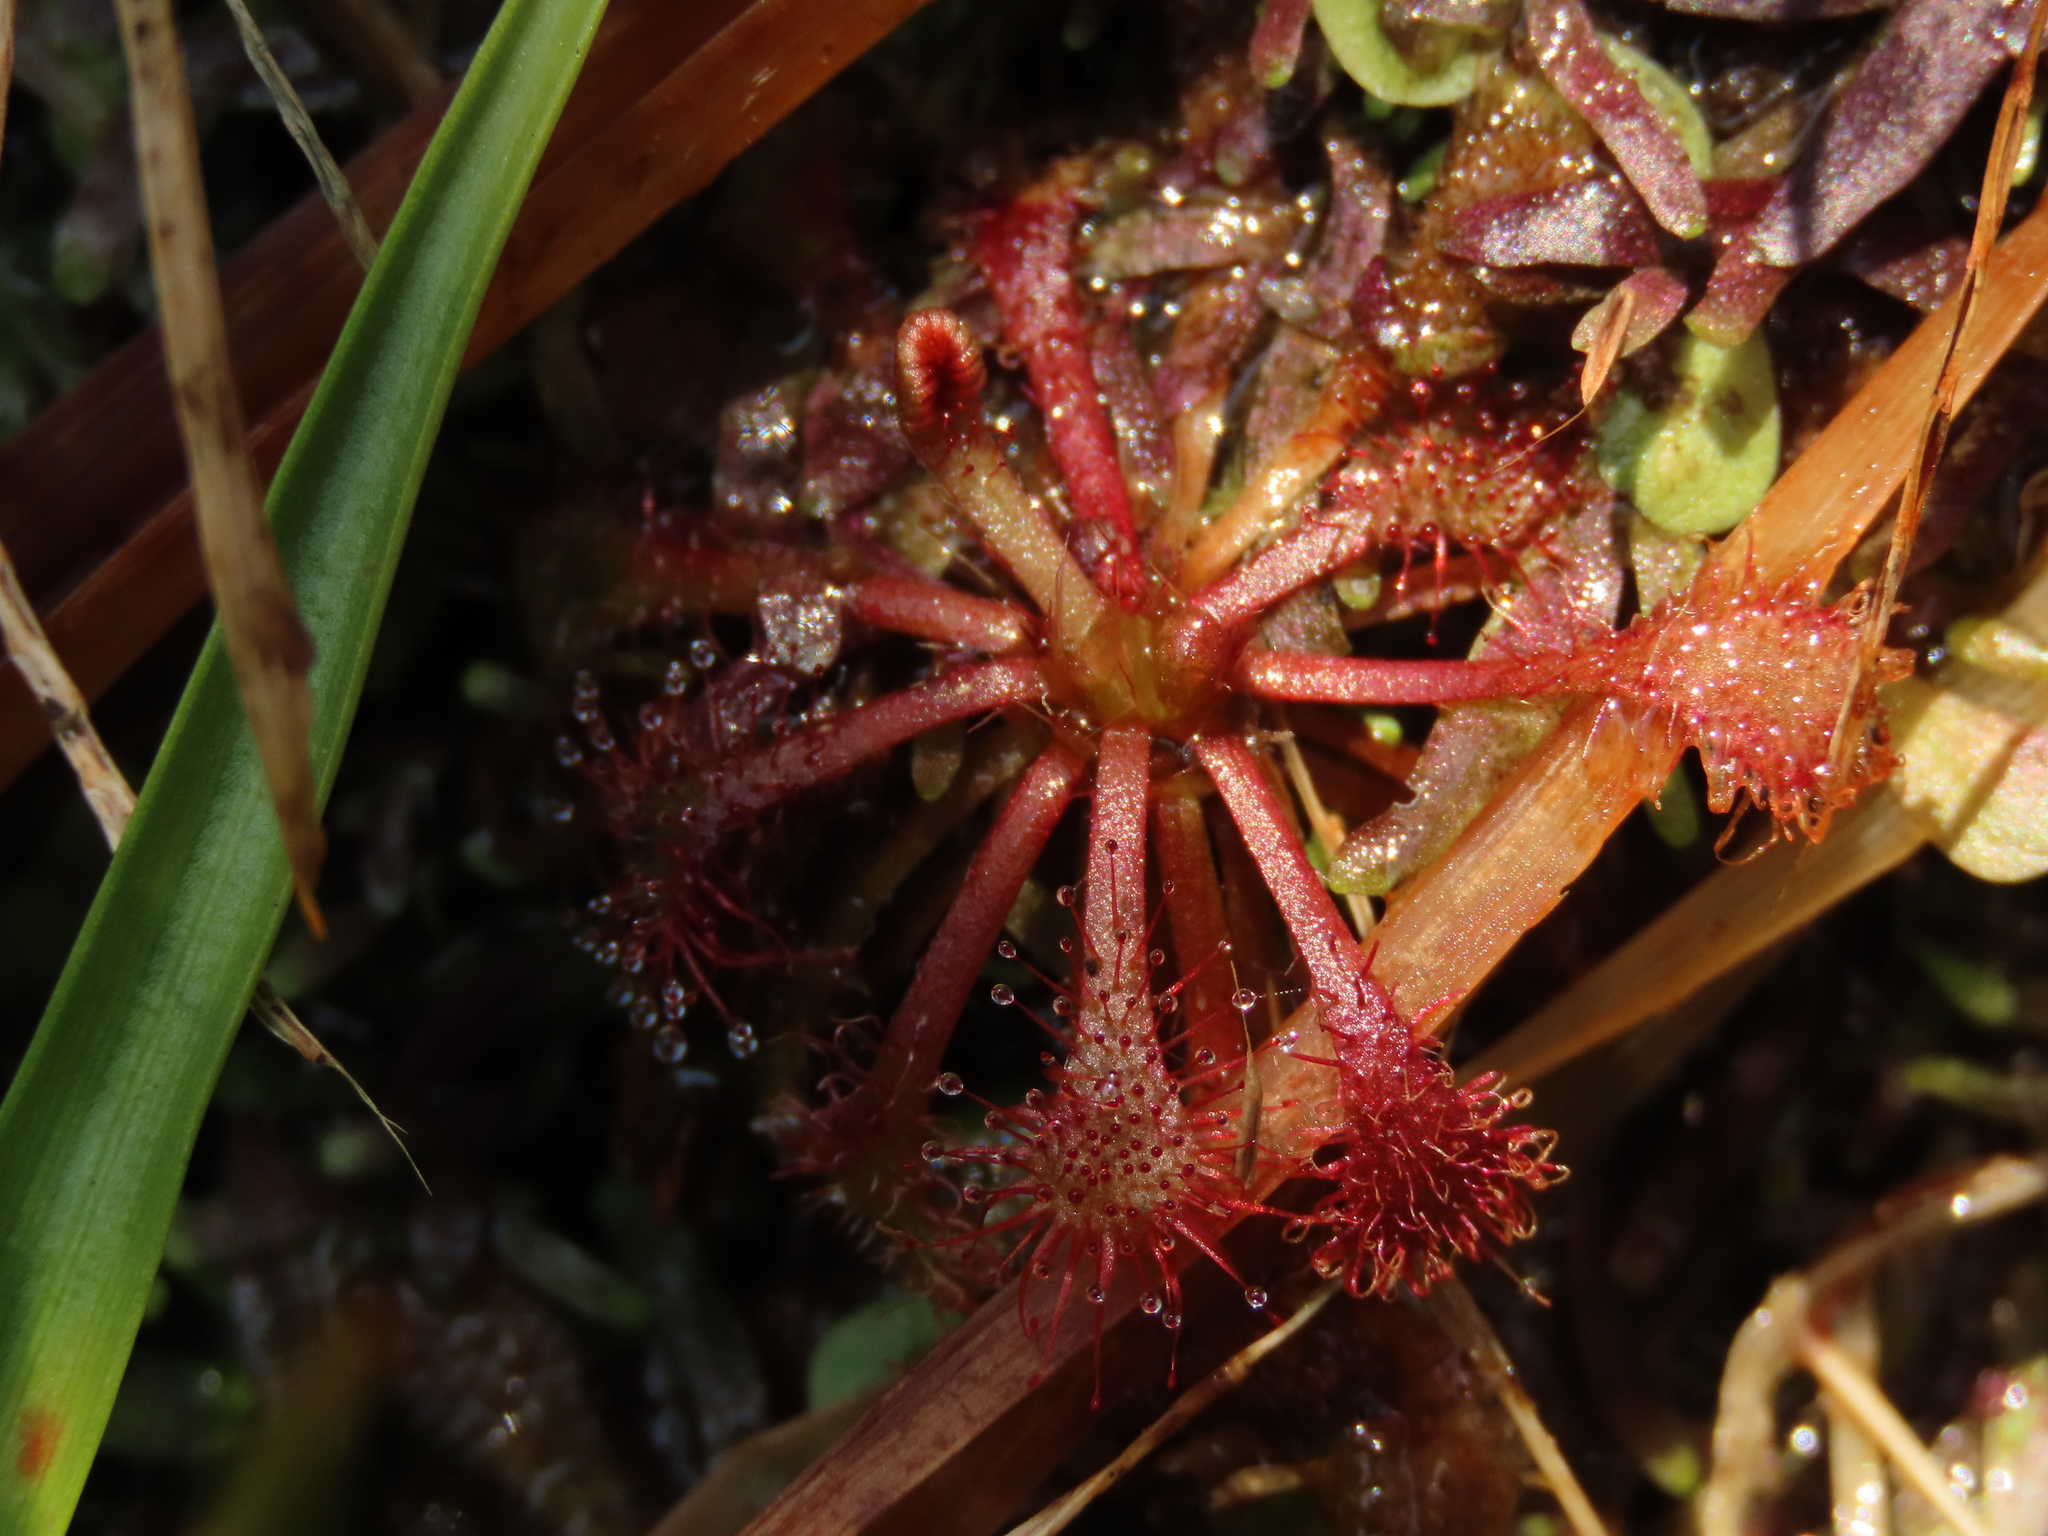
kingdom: Plantae
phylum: Tracheophyta
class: Magnoliopsida
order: Caryophyllales
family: Droseraceae
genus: Drosera
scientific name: Drosera spatulata
